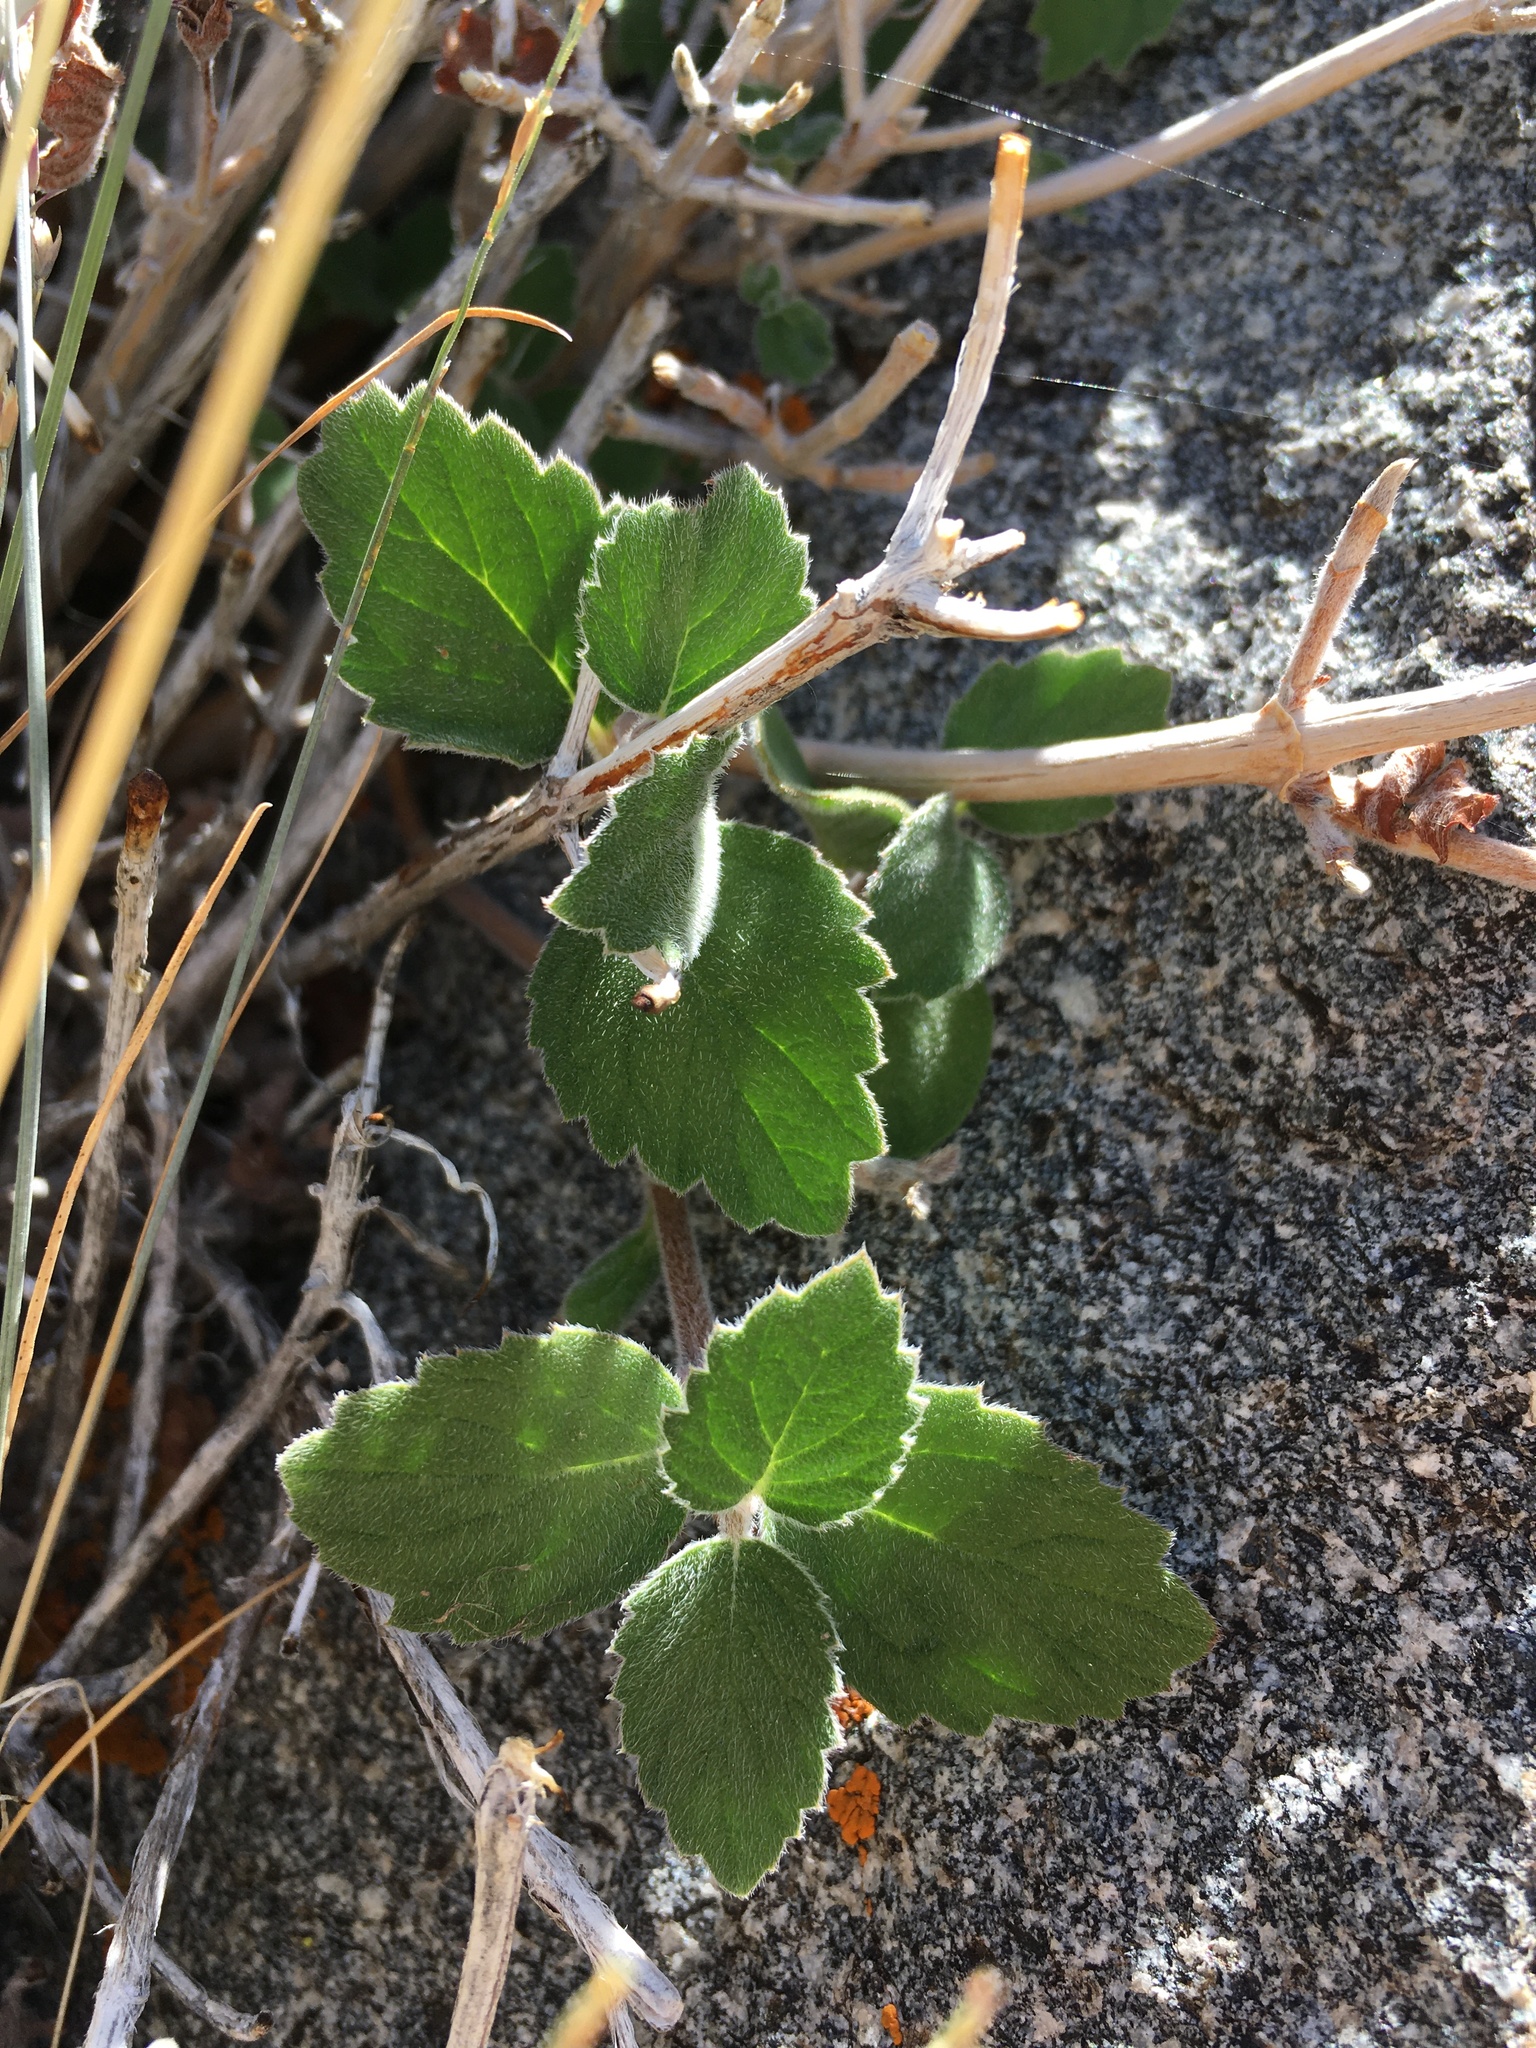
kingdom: Plantae
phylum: Tracheophyta
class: Magnoliopsida
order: Cornales
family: Hydrangeaceae
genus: Jamesia
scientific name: Jamesia americana
